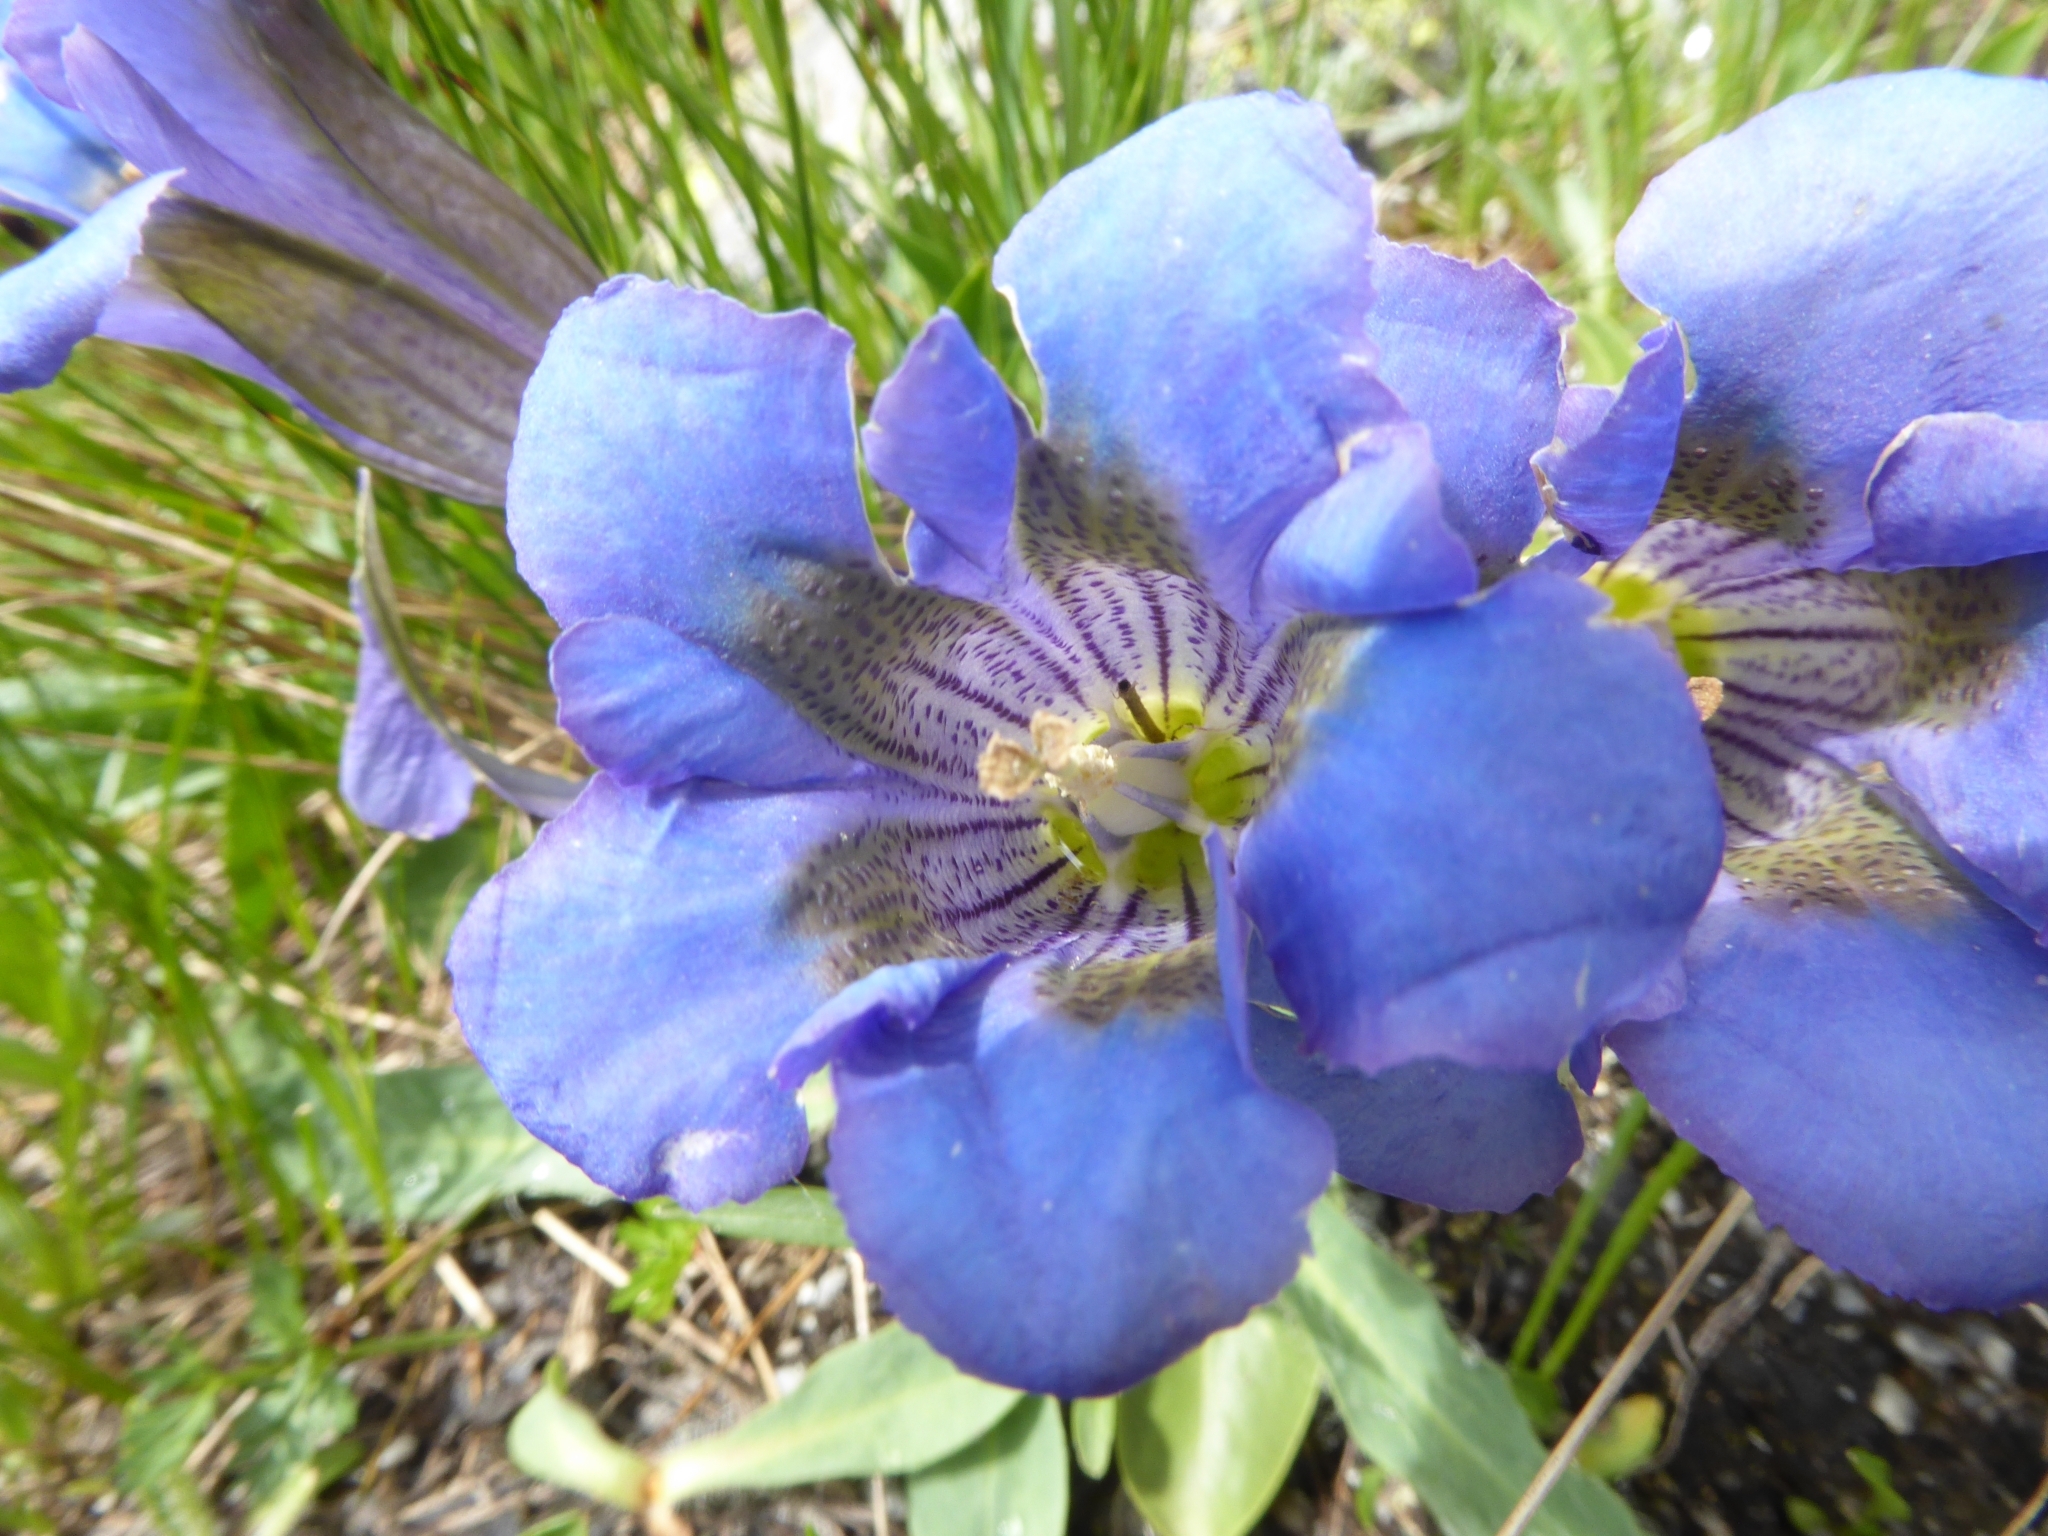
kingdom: Plantae
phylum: Tracheophyta
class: Magnoliopsida
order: Gentianales
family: Gentianaceae
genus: Gentiana
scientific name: Gentiana acaulis
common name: Trumpet gentian
